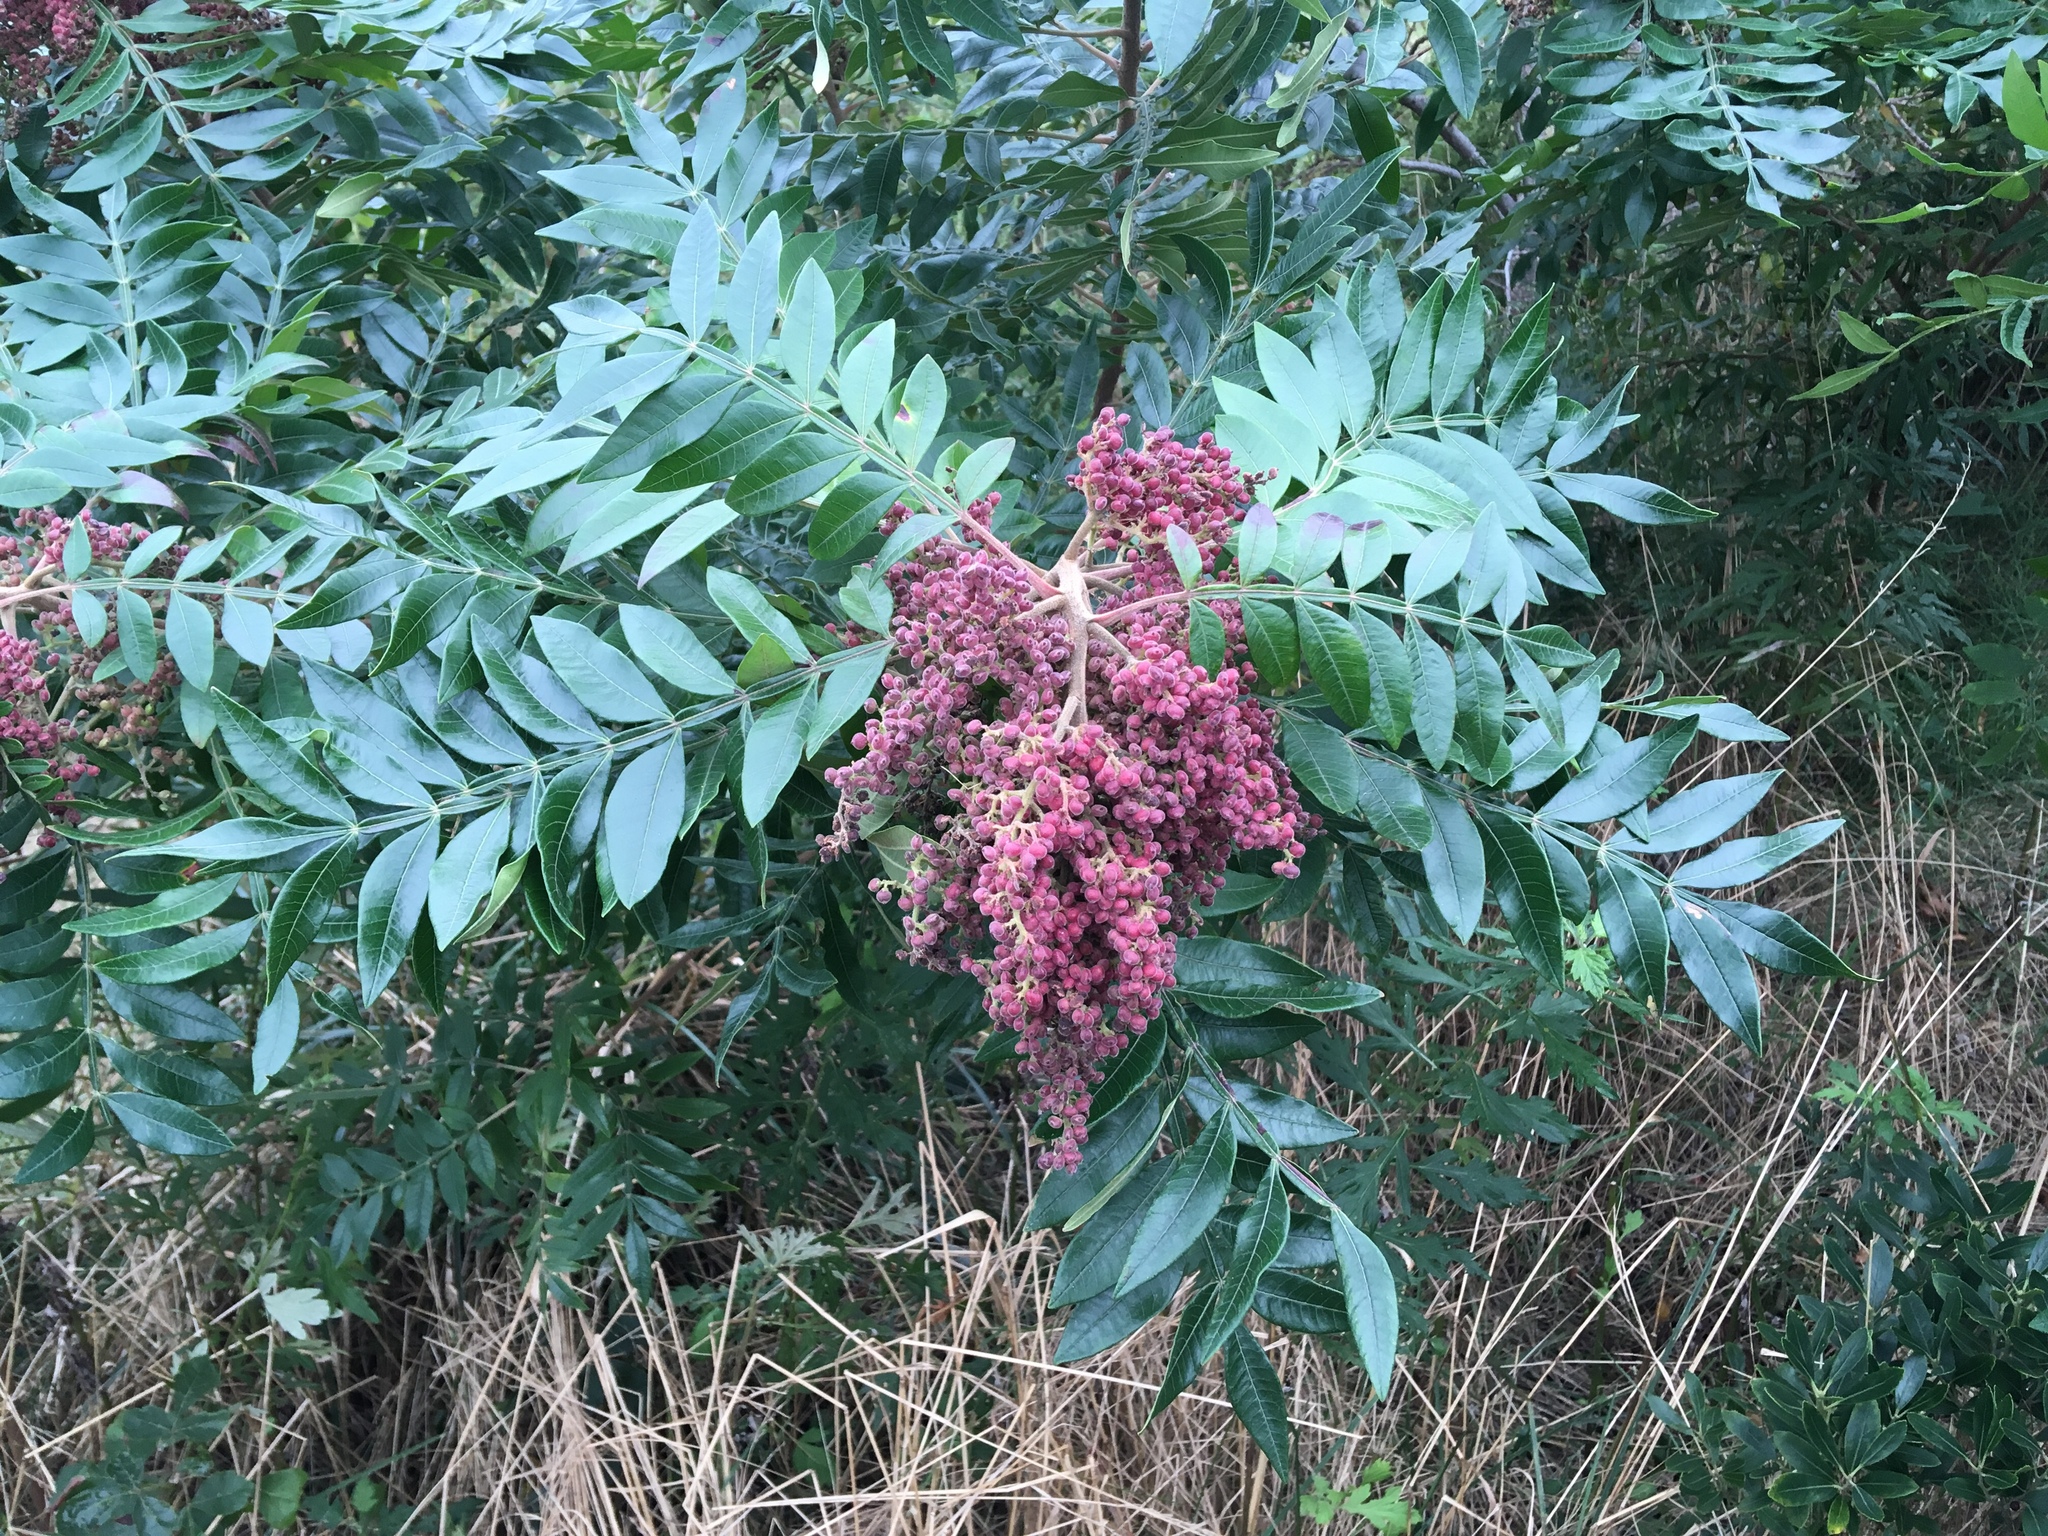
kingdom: Plantae
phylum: Tracheophyta
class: Magnoliopsida
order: Sapindales
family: Anacardiaceae
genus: Rhus
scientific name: Rhus copallina
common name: Shining sumac
